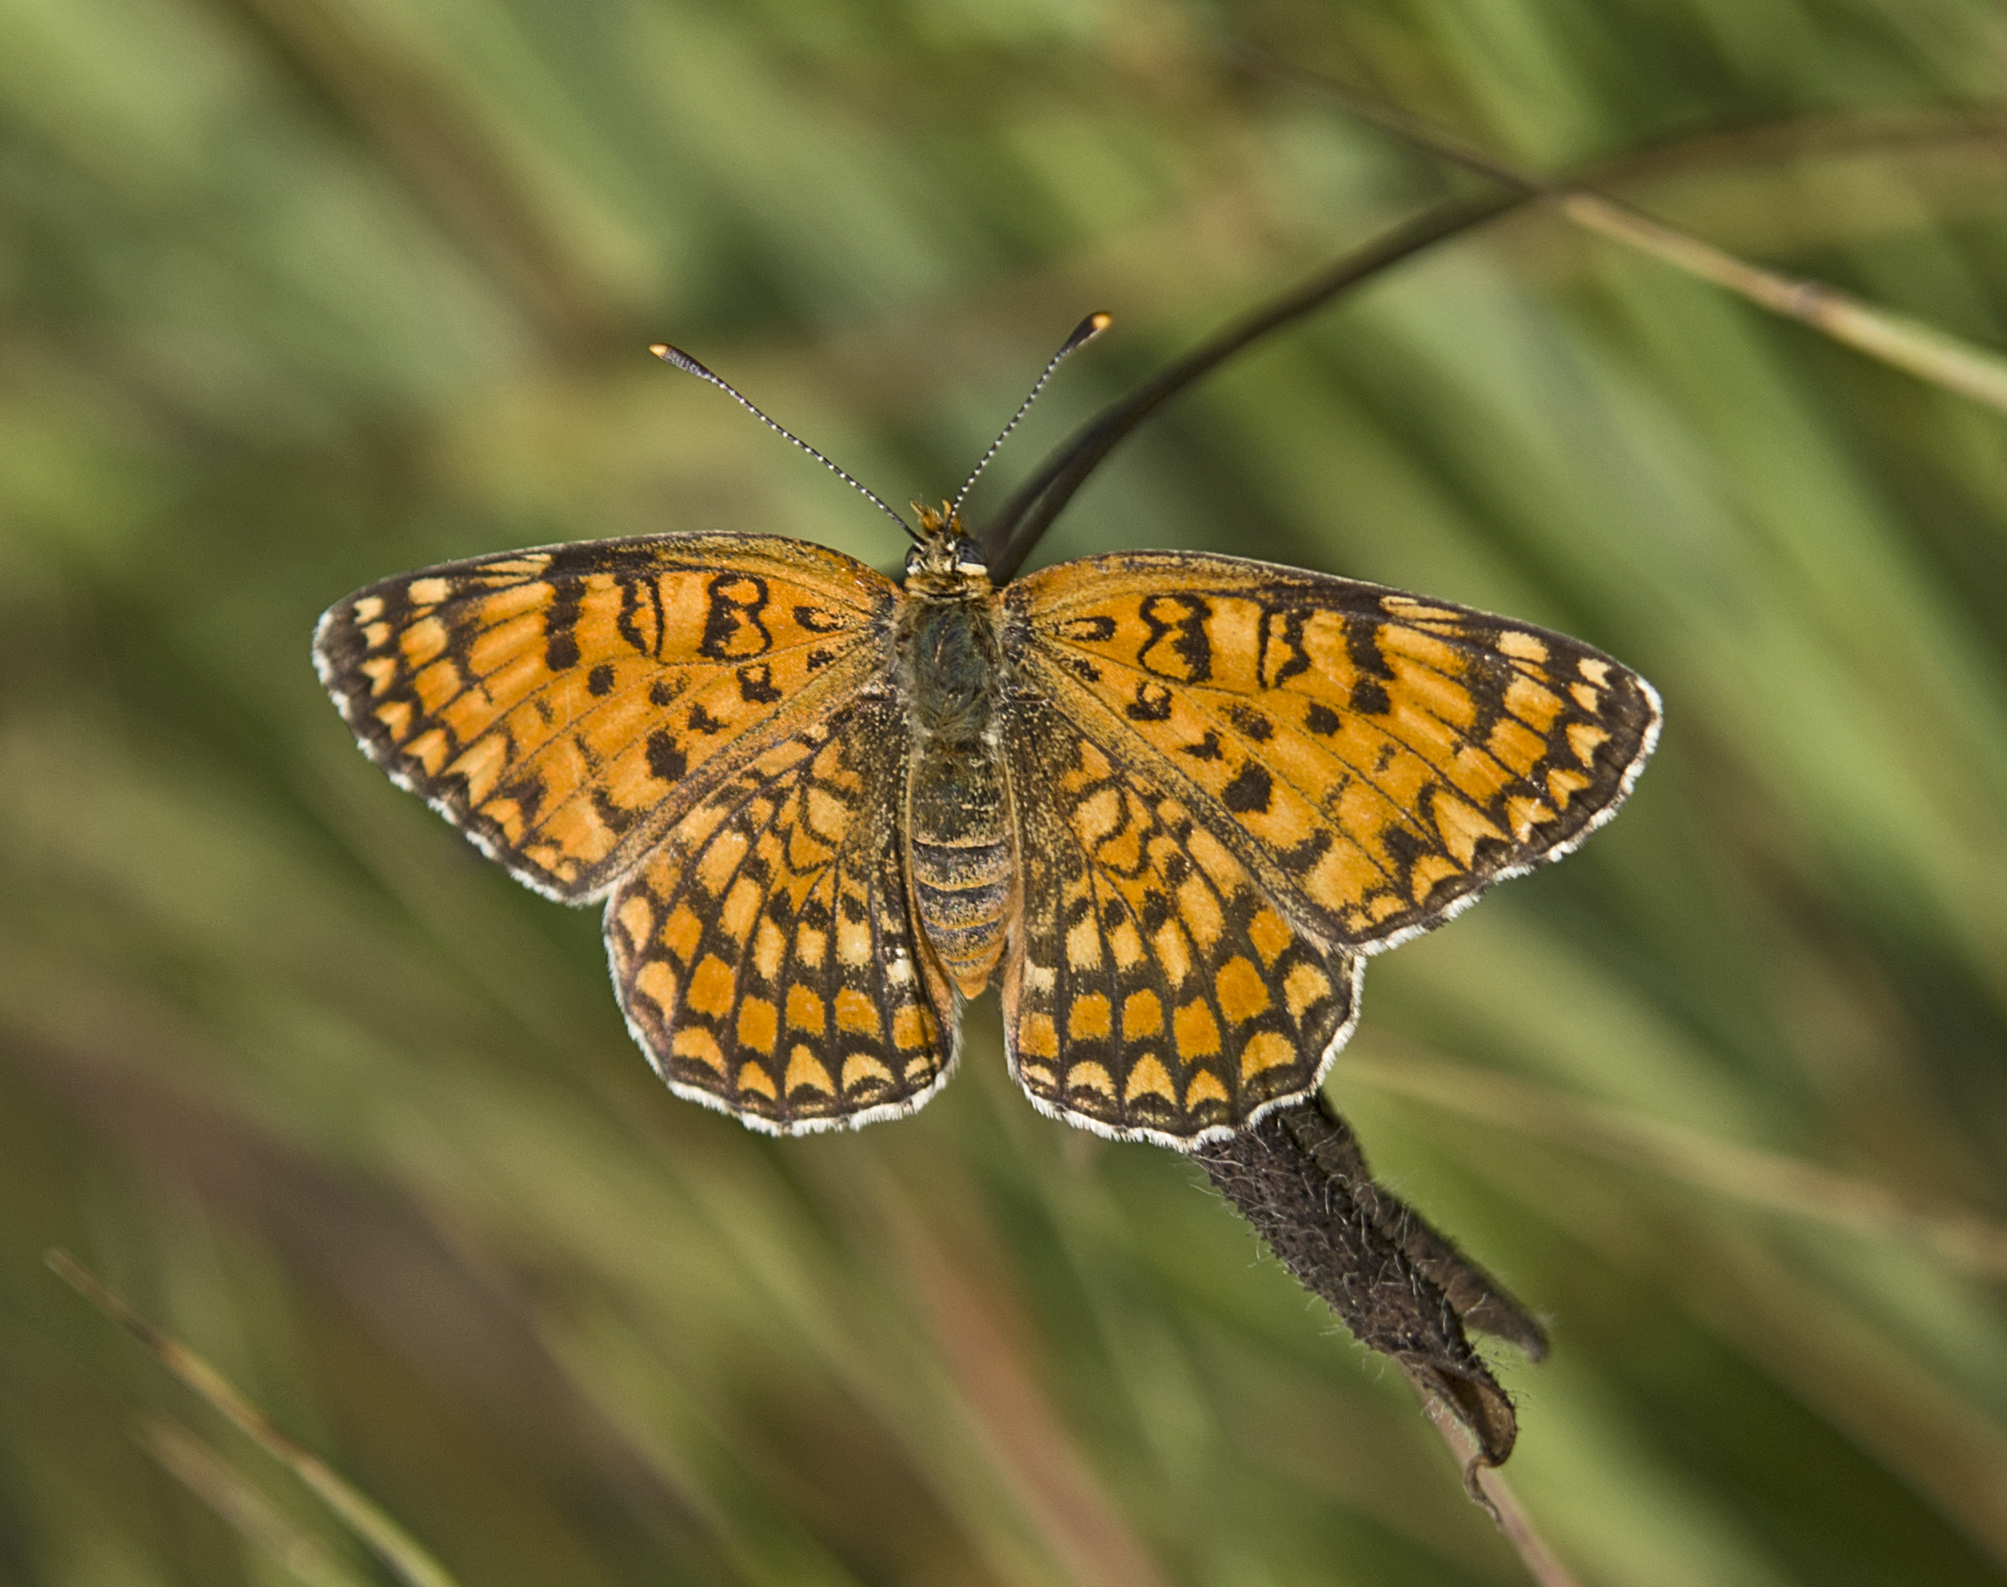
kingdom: Animalia
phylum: Arthropoda
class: Insecta
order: Lepidoptera
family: Nymphalidae
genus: Melitaea
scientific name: Melitaea phoebe
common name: Knapweed fritillary
